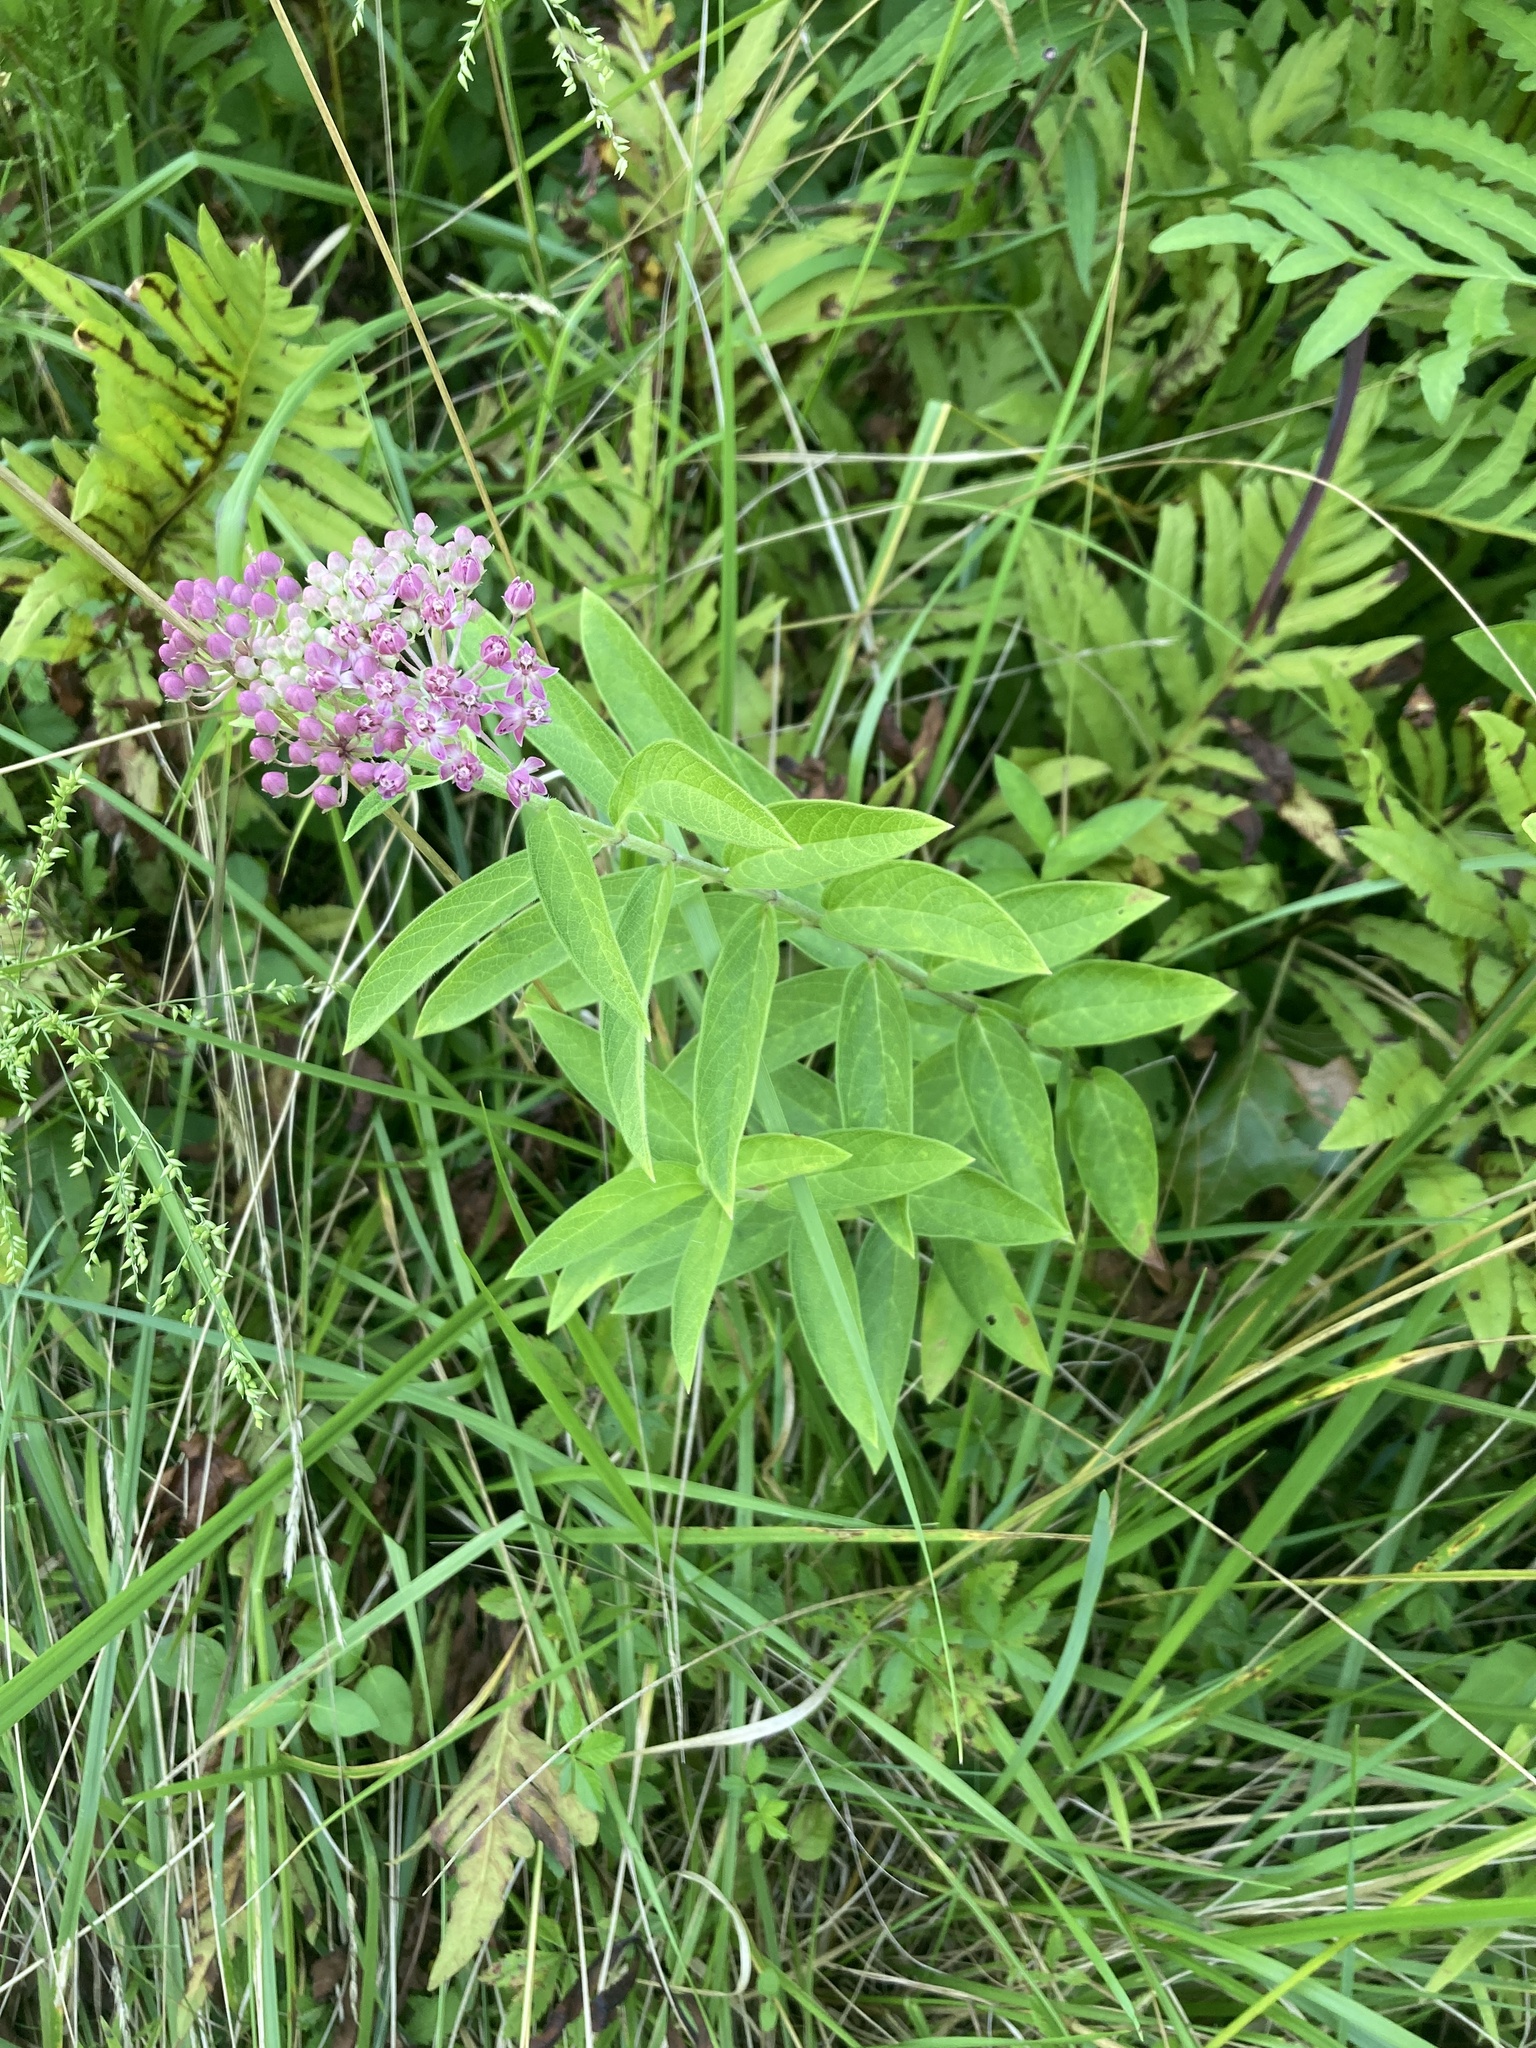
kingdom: Plantae
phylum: Tracheophyta
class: Magnoliopsida
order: Gentianales
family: Apocynaceae
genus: Asclepias
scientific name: Asclepias incarnata
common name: Swamp milkweed
